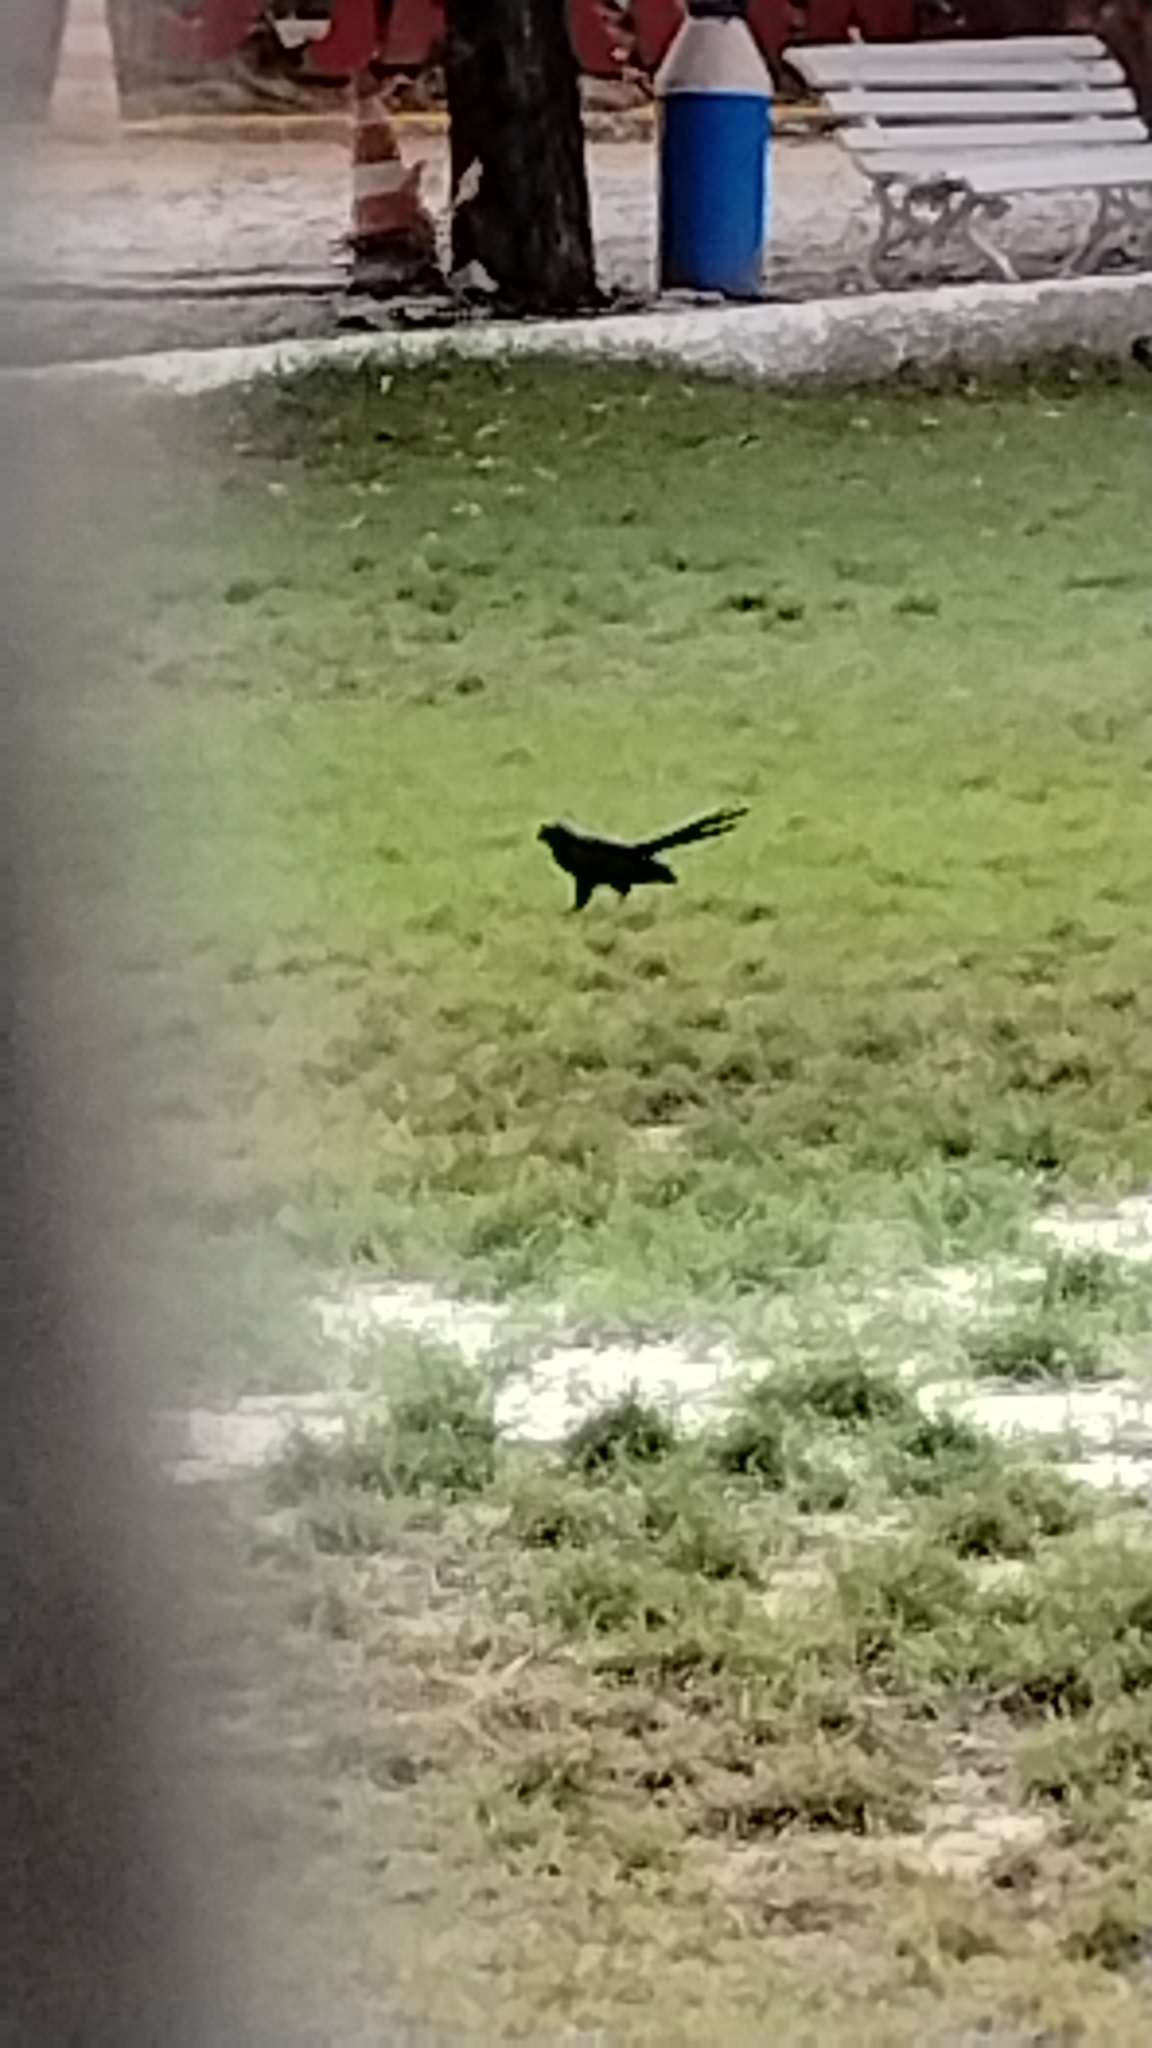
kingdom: Animalia
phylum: Chordata
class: Aves
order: Cuculiformes
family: Cuculidae
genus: Crotophaga
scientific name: Crotophaga ani
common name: Smooth-billed ani
